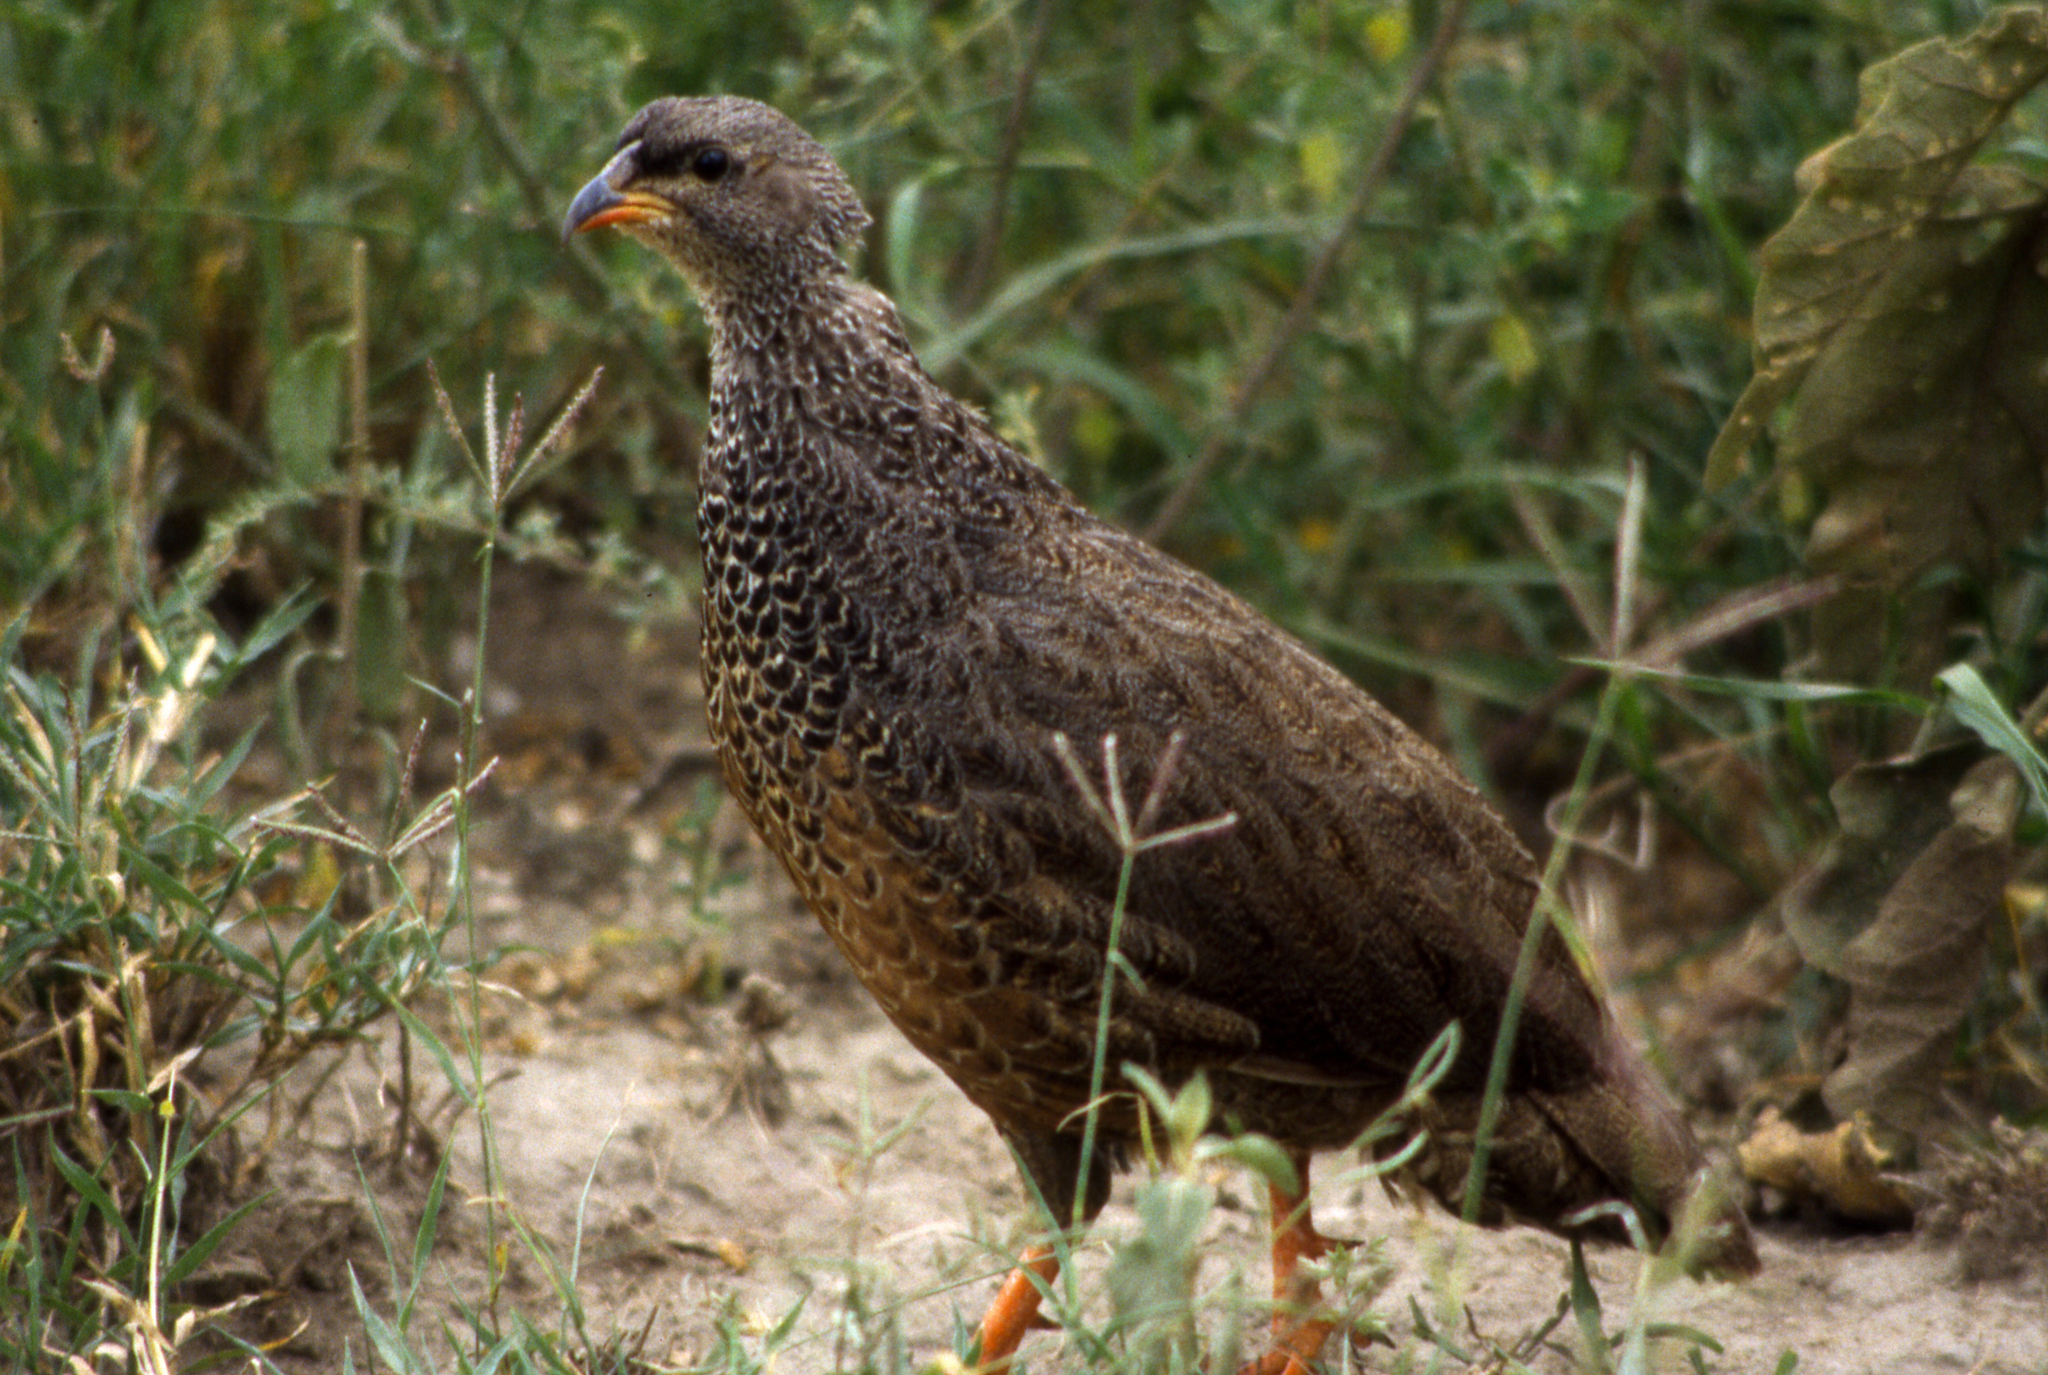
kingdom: Animalia
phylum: Chordata
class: Aves
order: Galliformes
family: Phasianidae
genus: Pternistis
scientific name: Pternistis hildebrandti
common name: Hildebrandt's francolin
